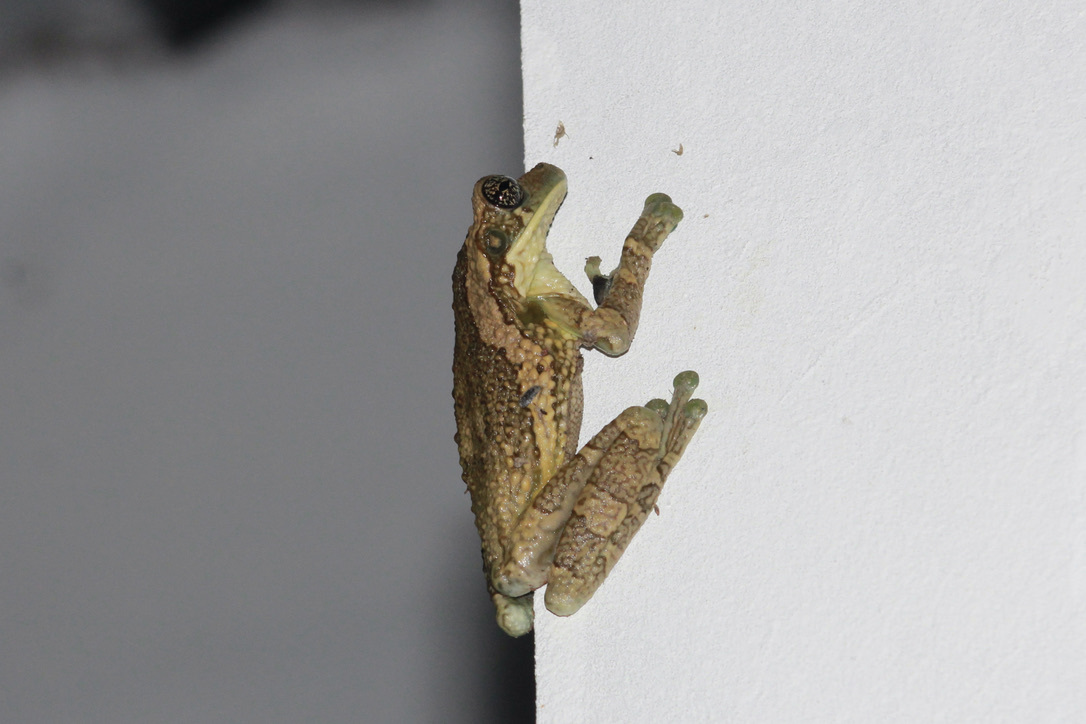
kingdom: Animalia
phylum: Chordata
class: Amphibia
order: Anura
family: Hylidae
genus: Trachycephalus
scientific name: Trachycephalus typhonius
